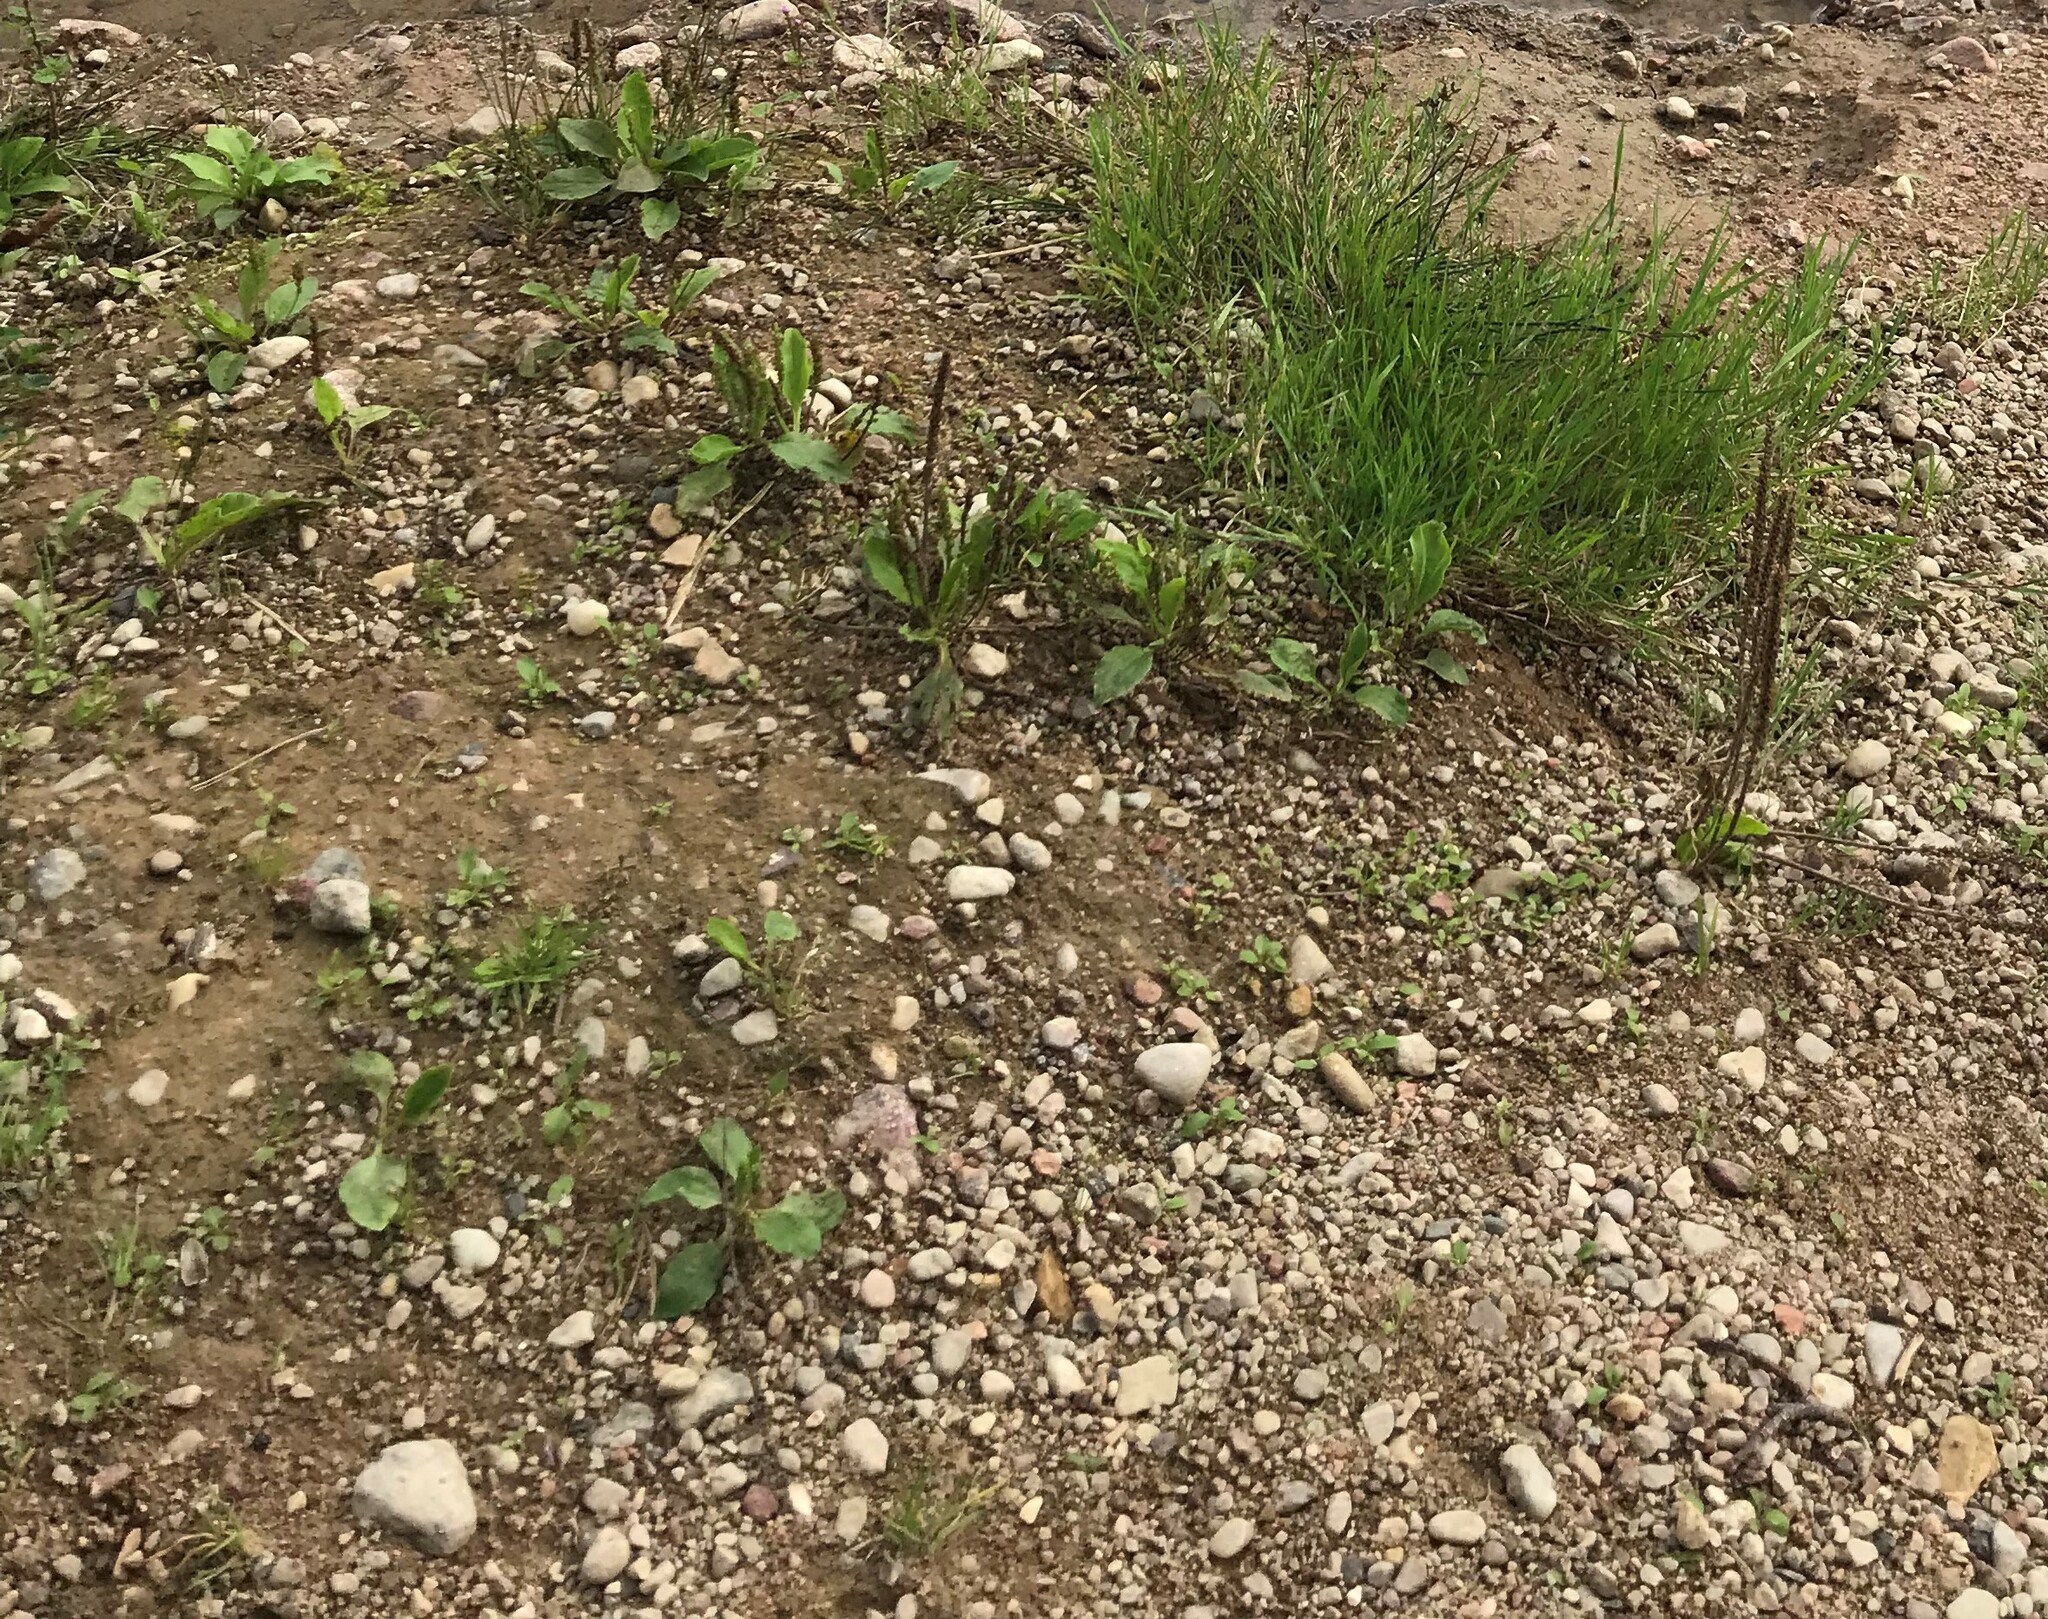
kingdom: Plantae
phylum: Tracheophyta
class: Magnoliopsida
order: Lamiales
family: Plantaginaceae
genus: Plantago
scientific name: Plantago major
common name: Common plantain
